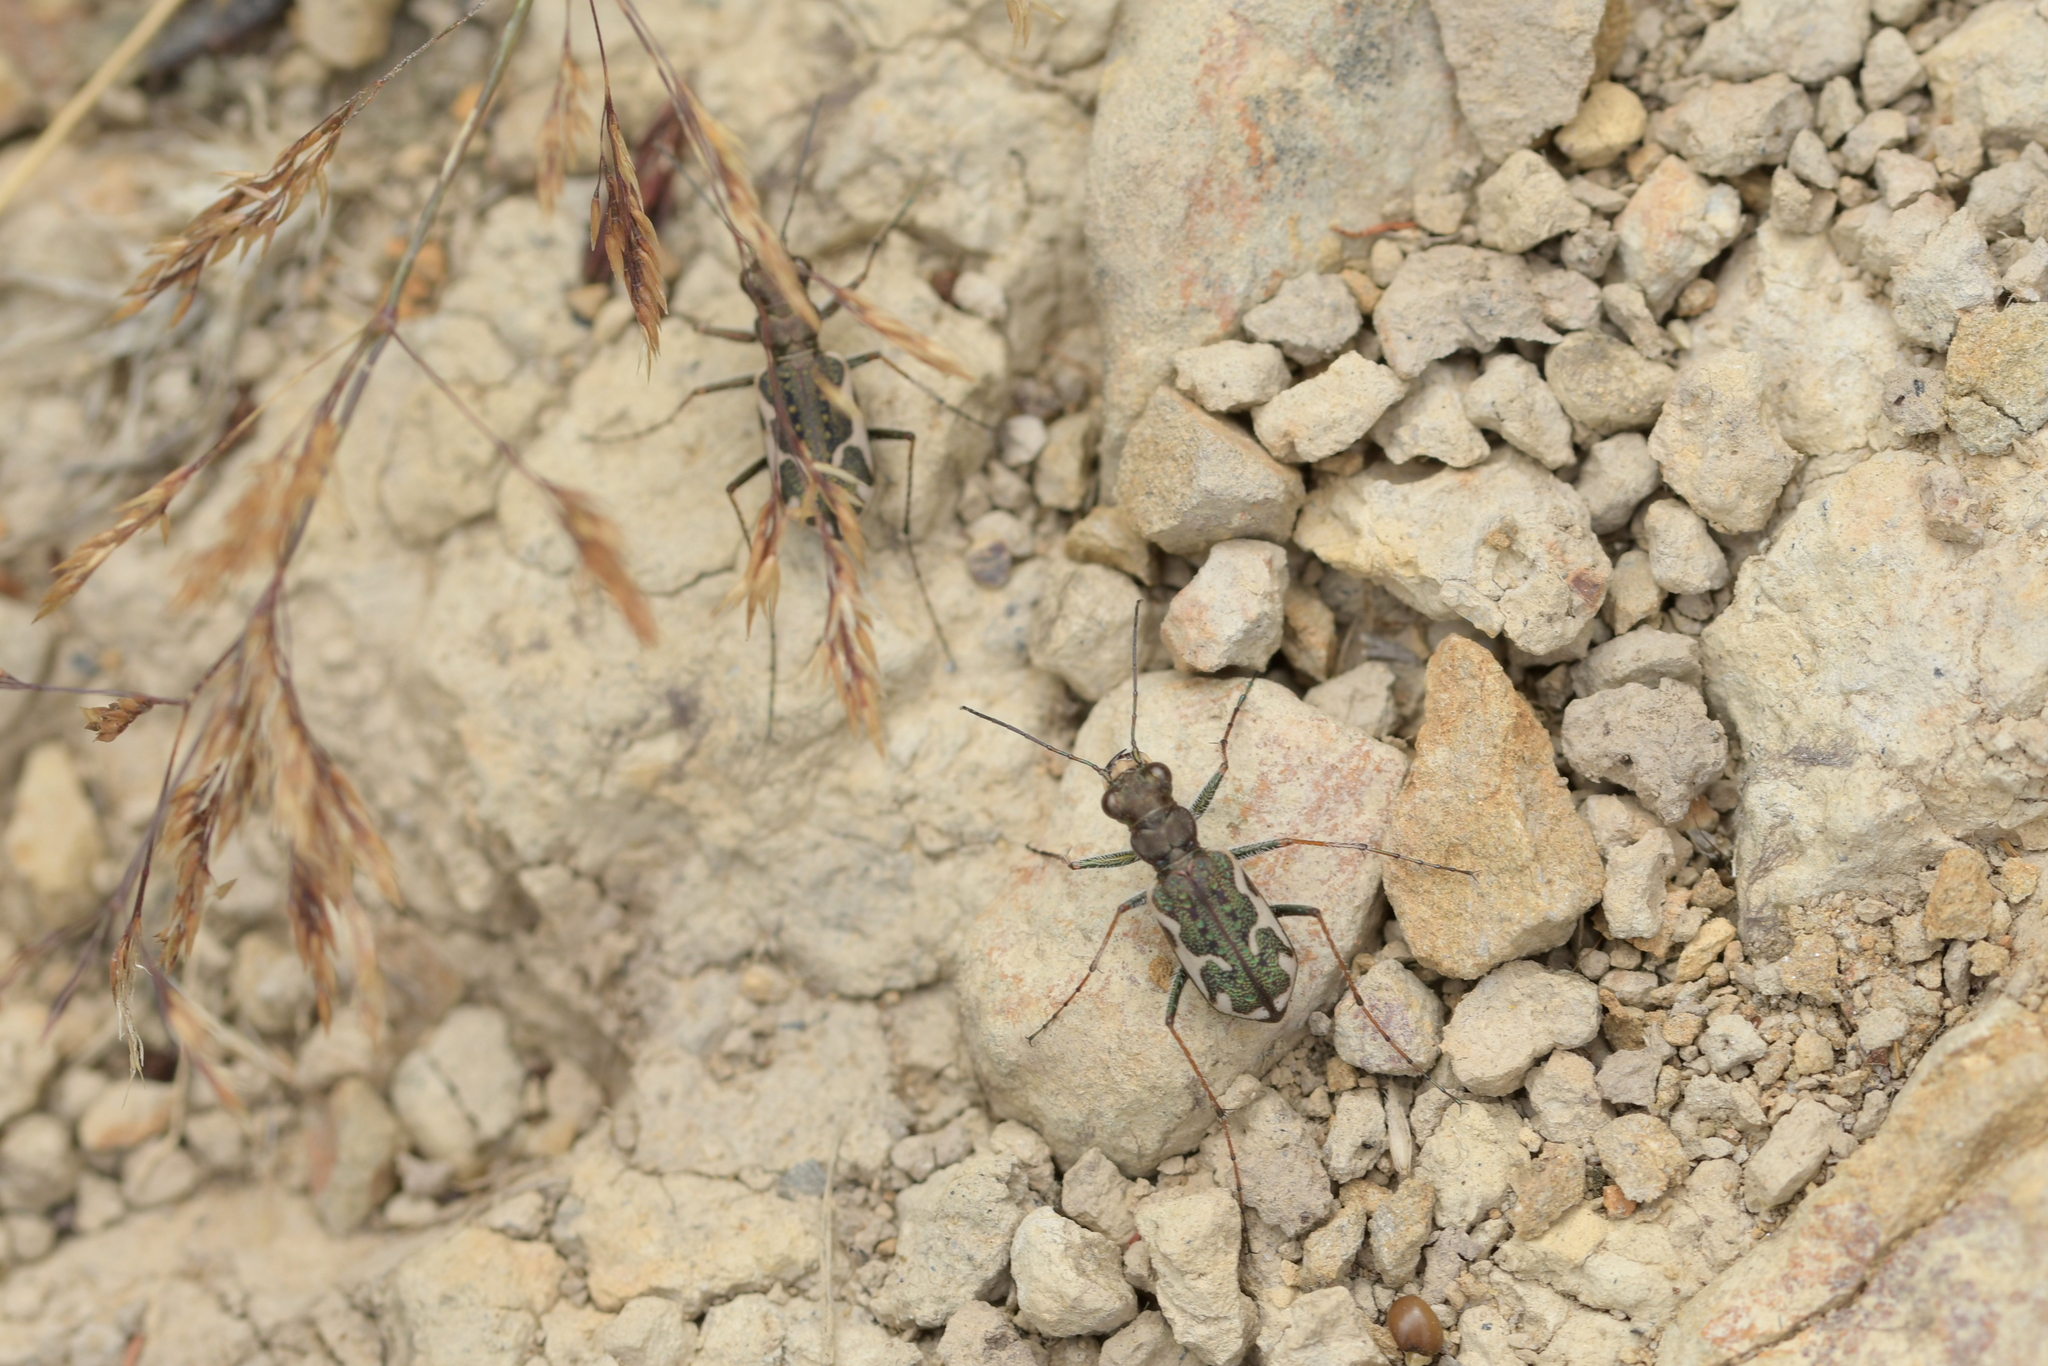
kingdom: Animalia
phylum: Arthropoda
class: Insecta
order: Coleoptera
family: Carabidae
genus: Neocicindela
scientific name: Neocicindela tuberculata
